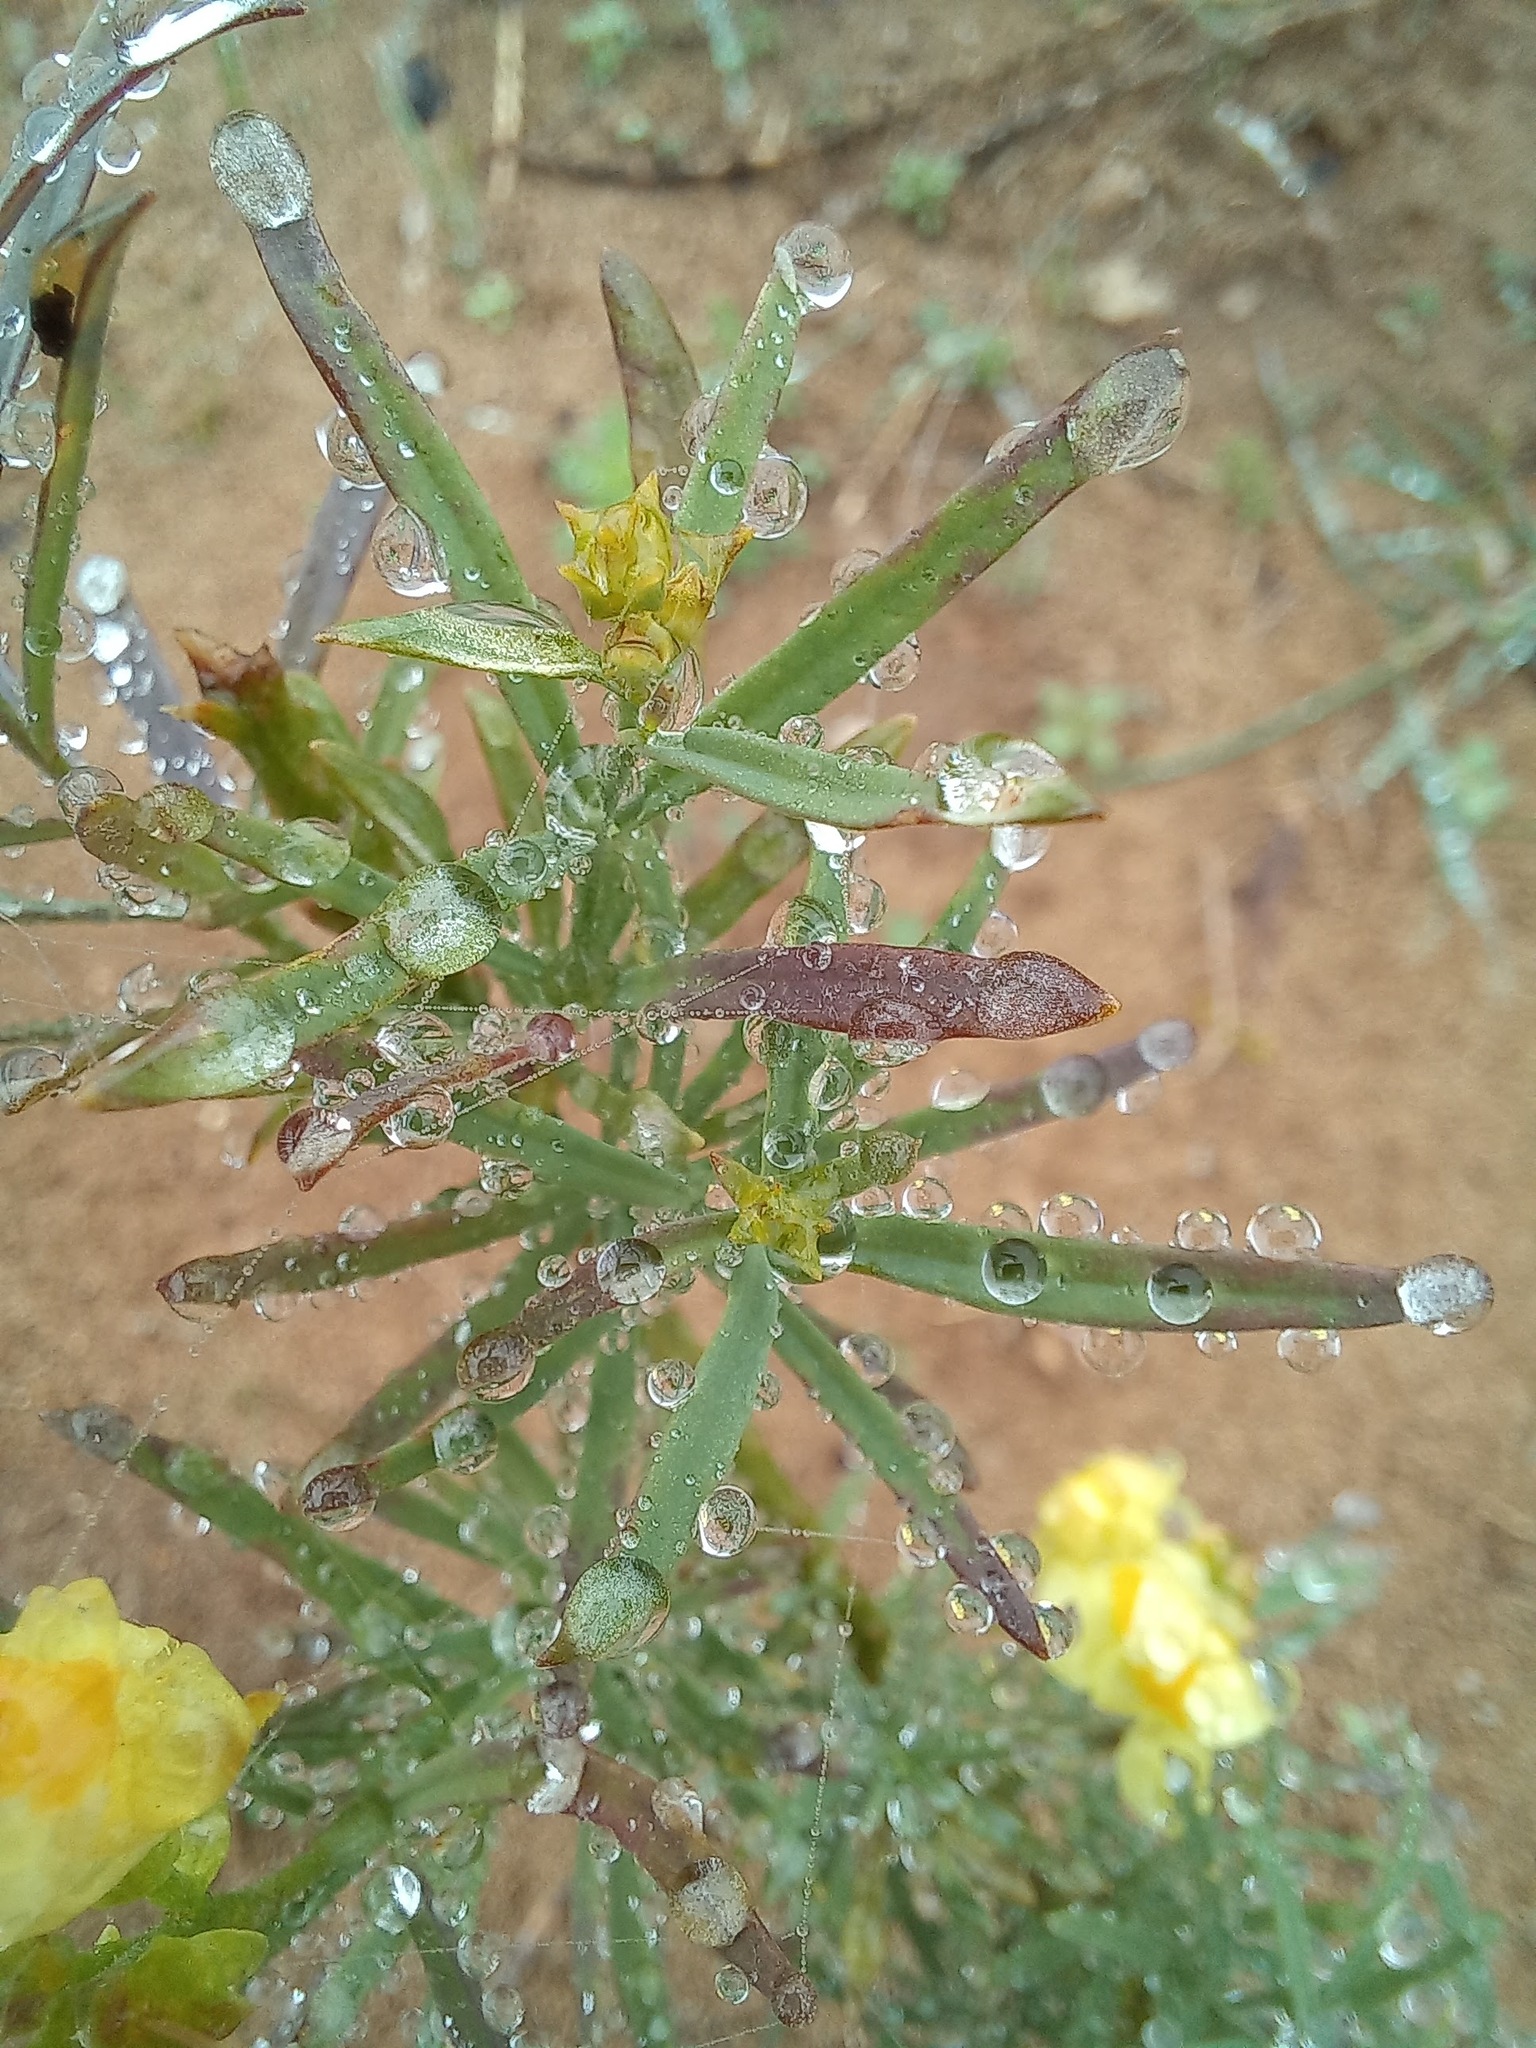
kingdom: Plantae
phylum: Tracheophyta
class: Magnoliopsida
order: Lamiales
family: Plantaginaceae
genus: Linaria
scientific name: Linaria vulgaris
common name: Butter and eggs
